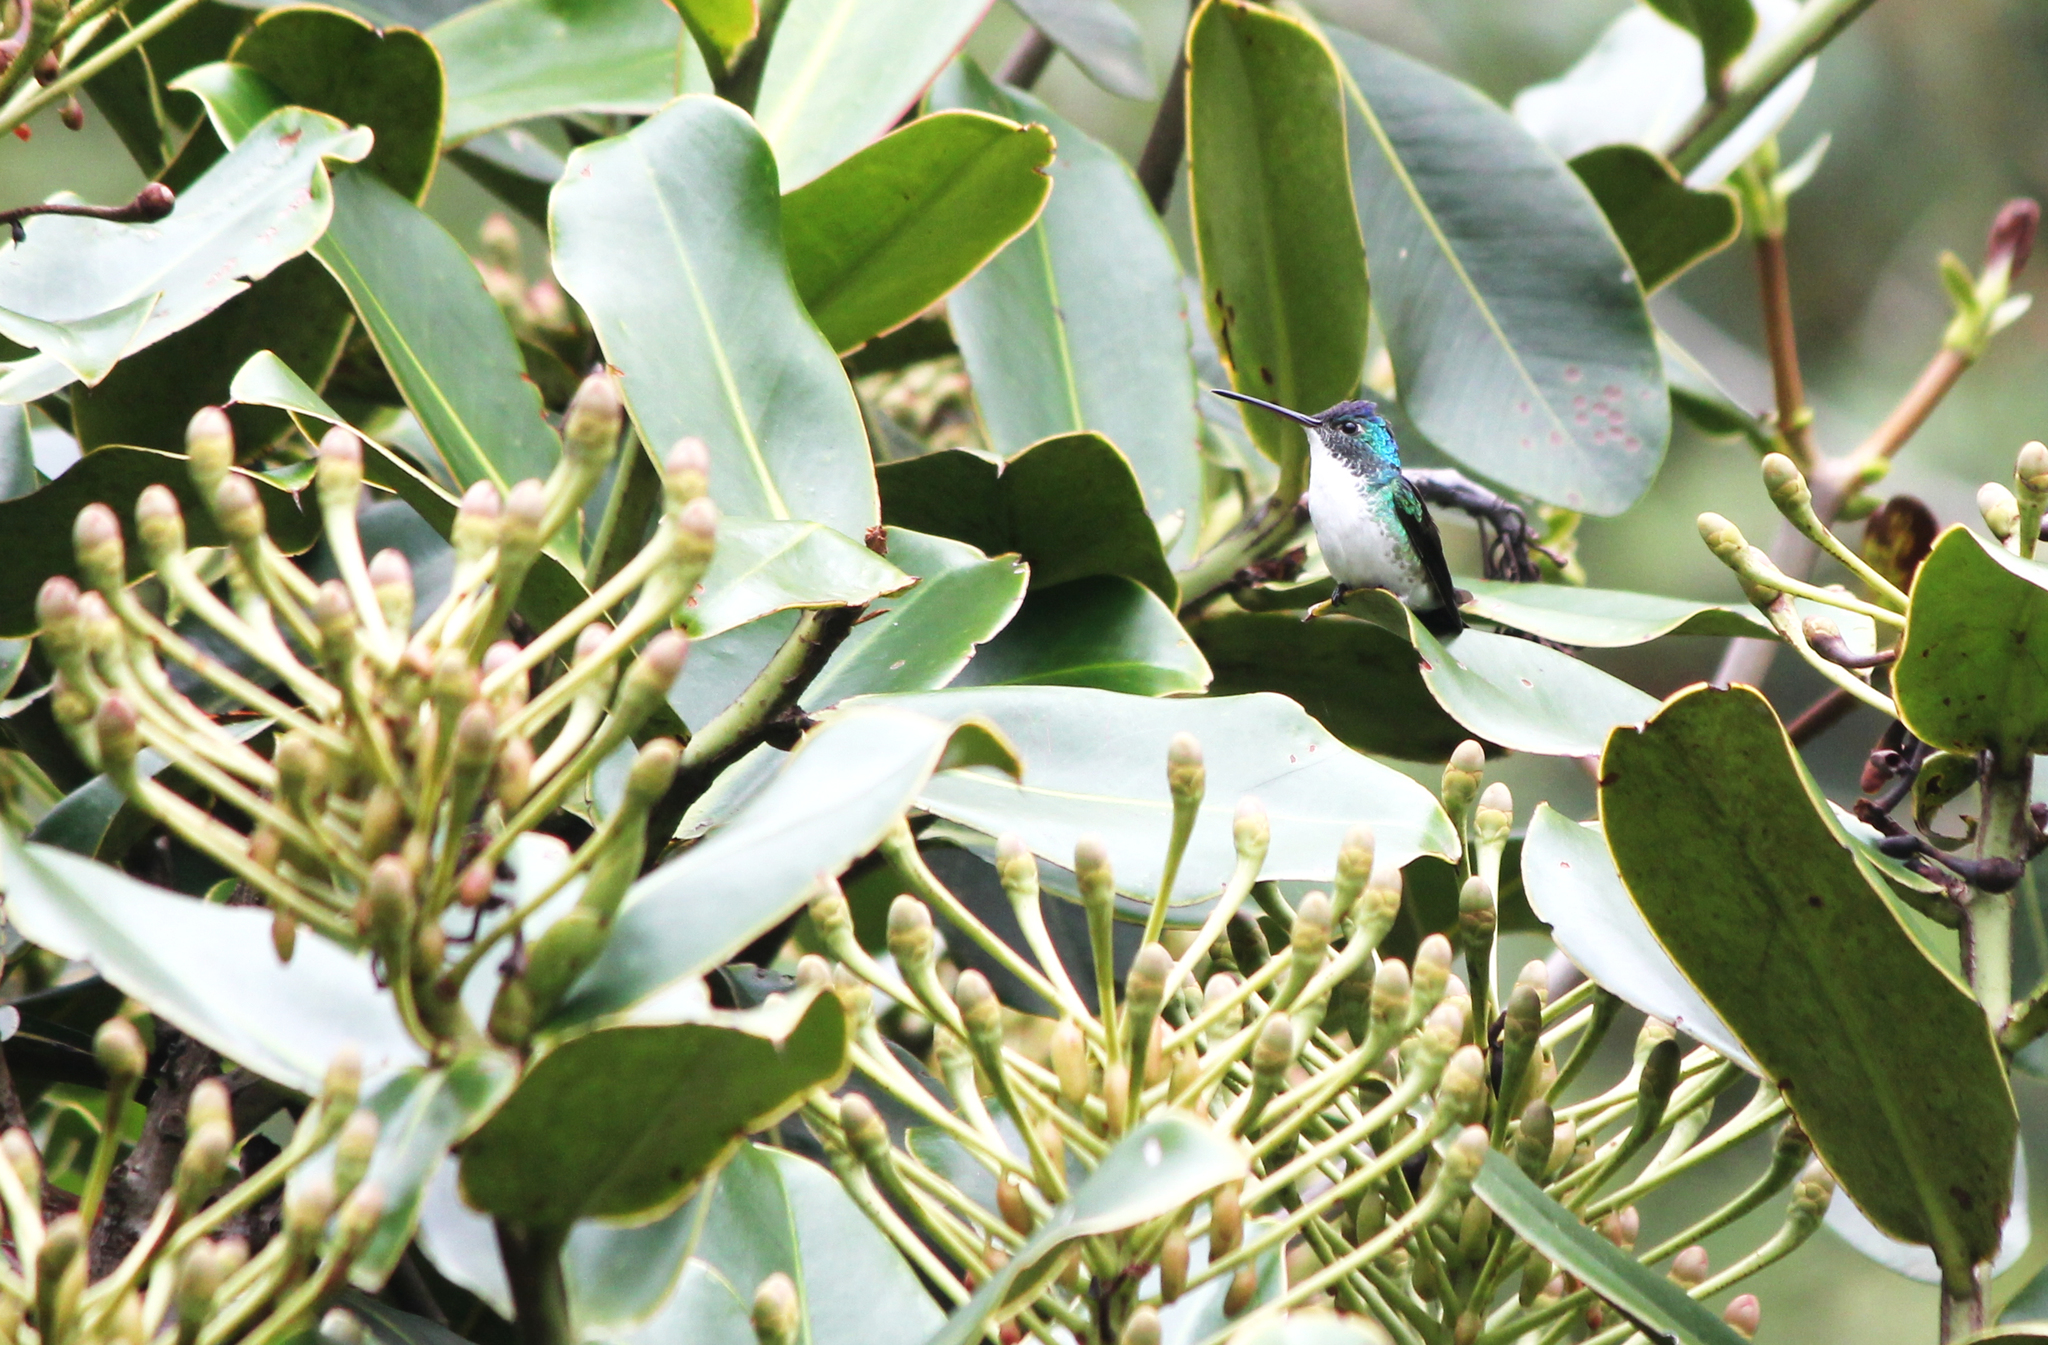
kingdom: Animalia
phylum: Chordata
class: Aves
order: Apodiformes
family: Trochilidae
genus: Uranomitra
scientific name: Uranomitra franciae
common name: Andean emerald
